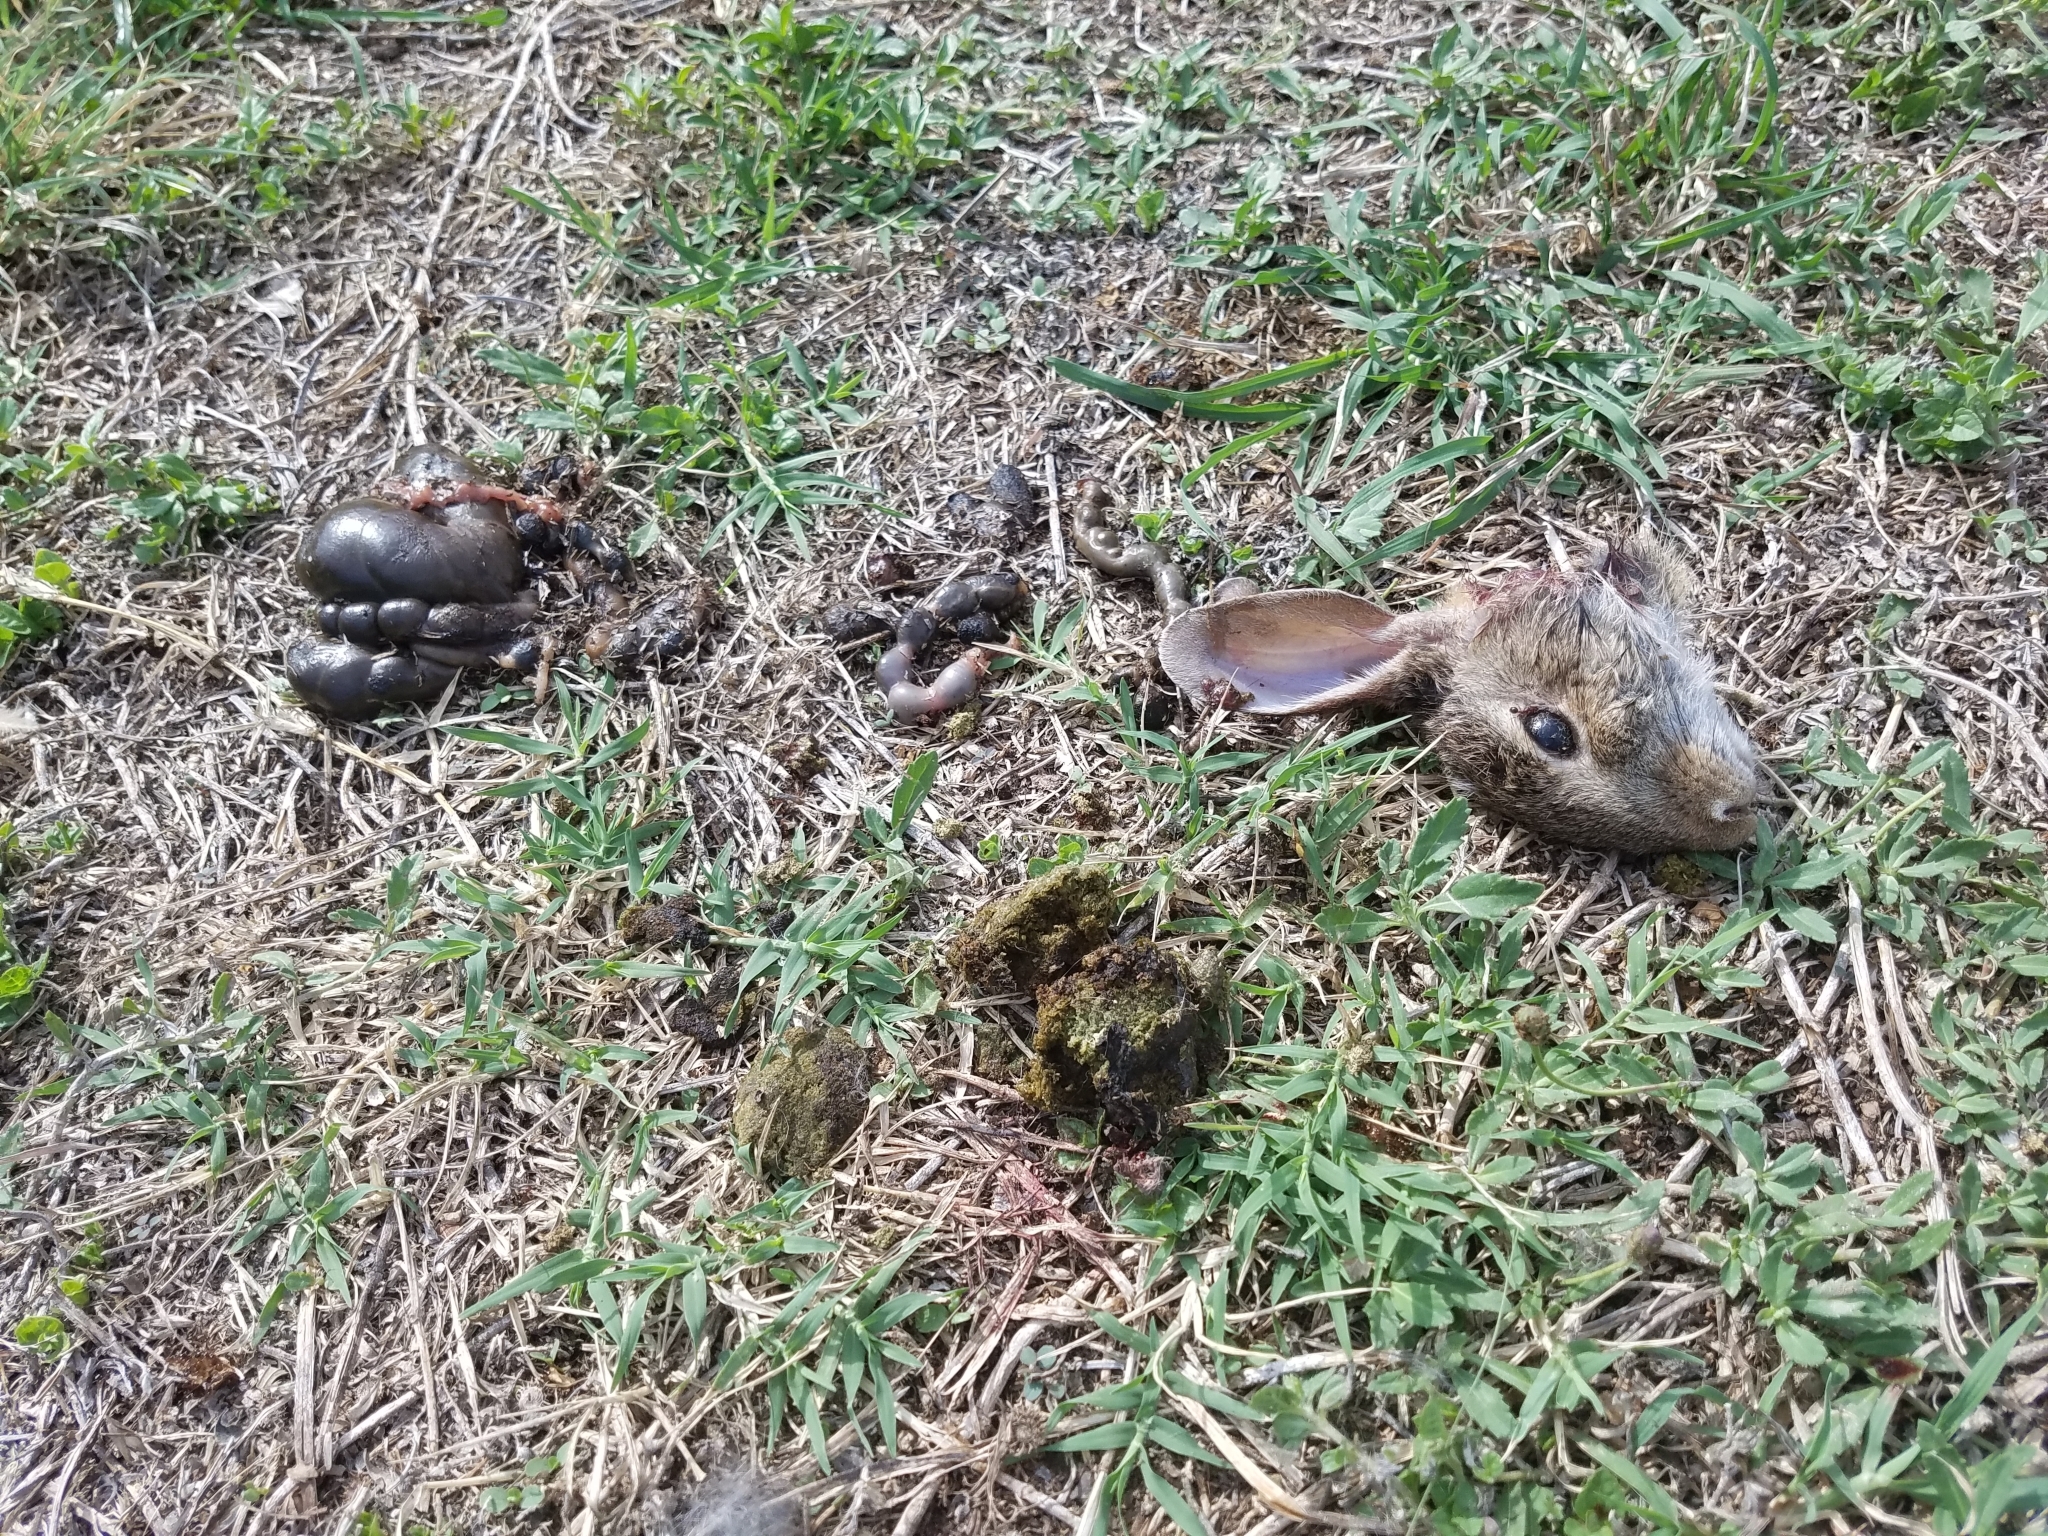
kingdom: Animalia
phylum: Chordata
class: Mammalia
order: Lagomorpha
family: Leporidae
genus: Sylvilagus
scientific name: Sylvilagus floridanus
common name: Eastern cottontail
